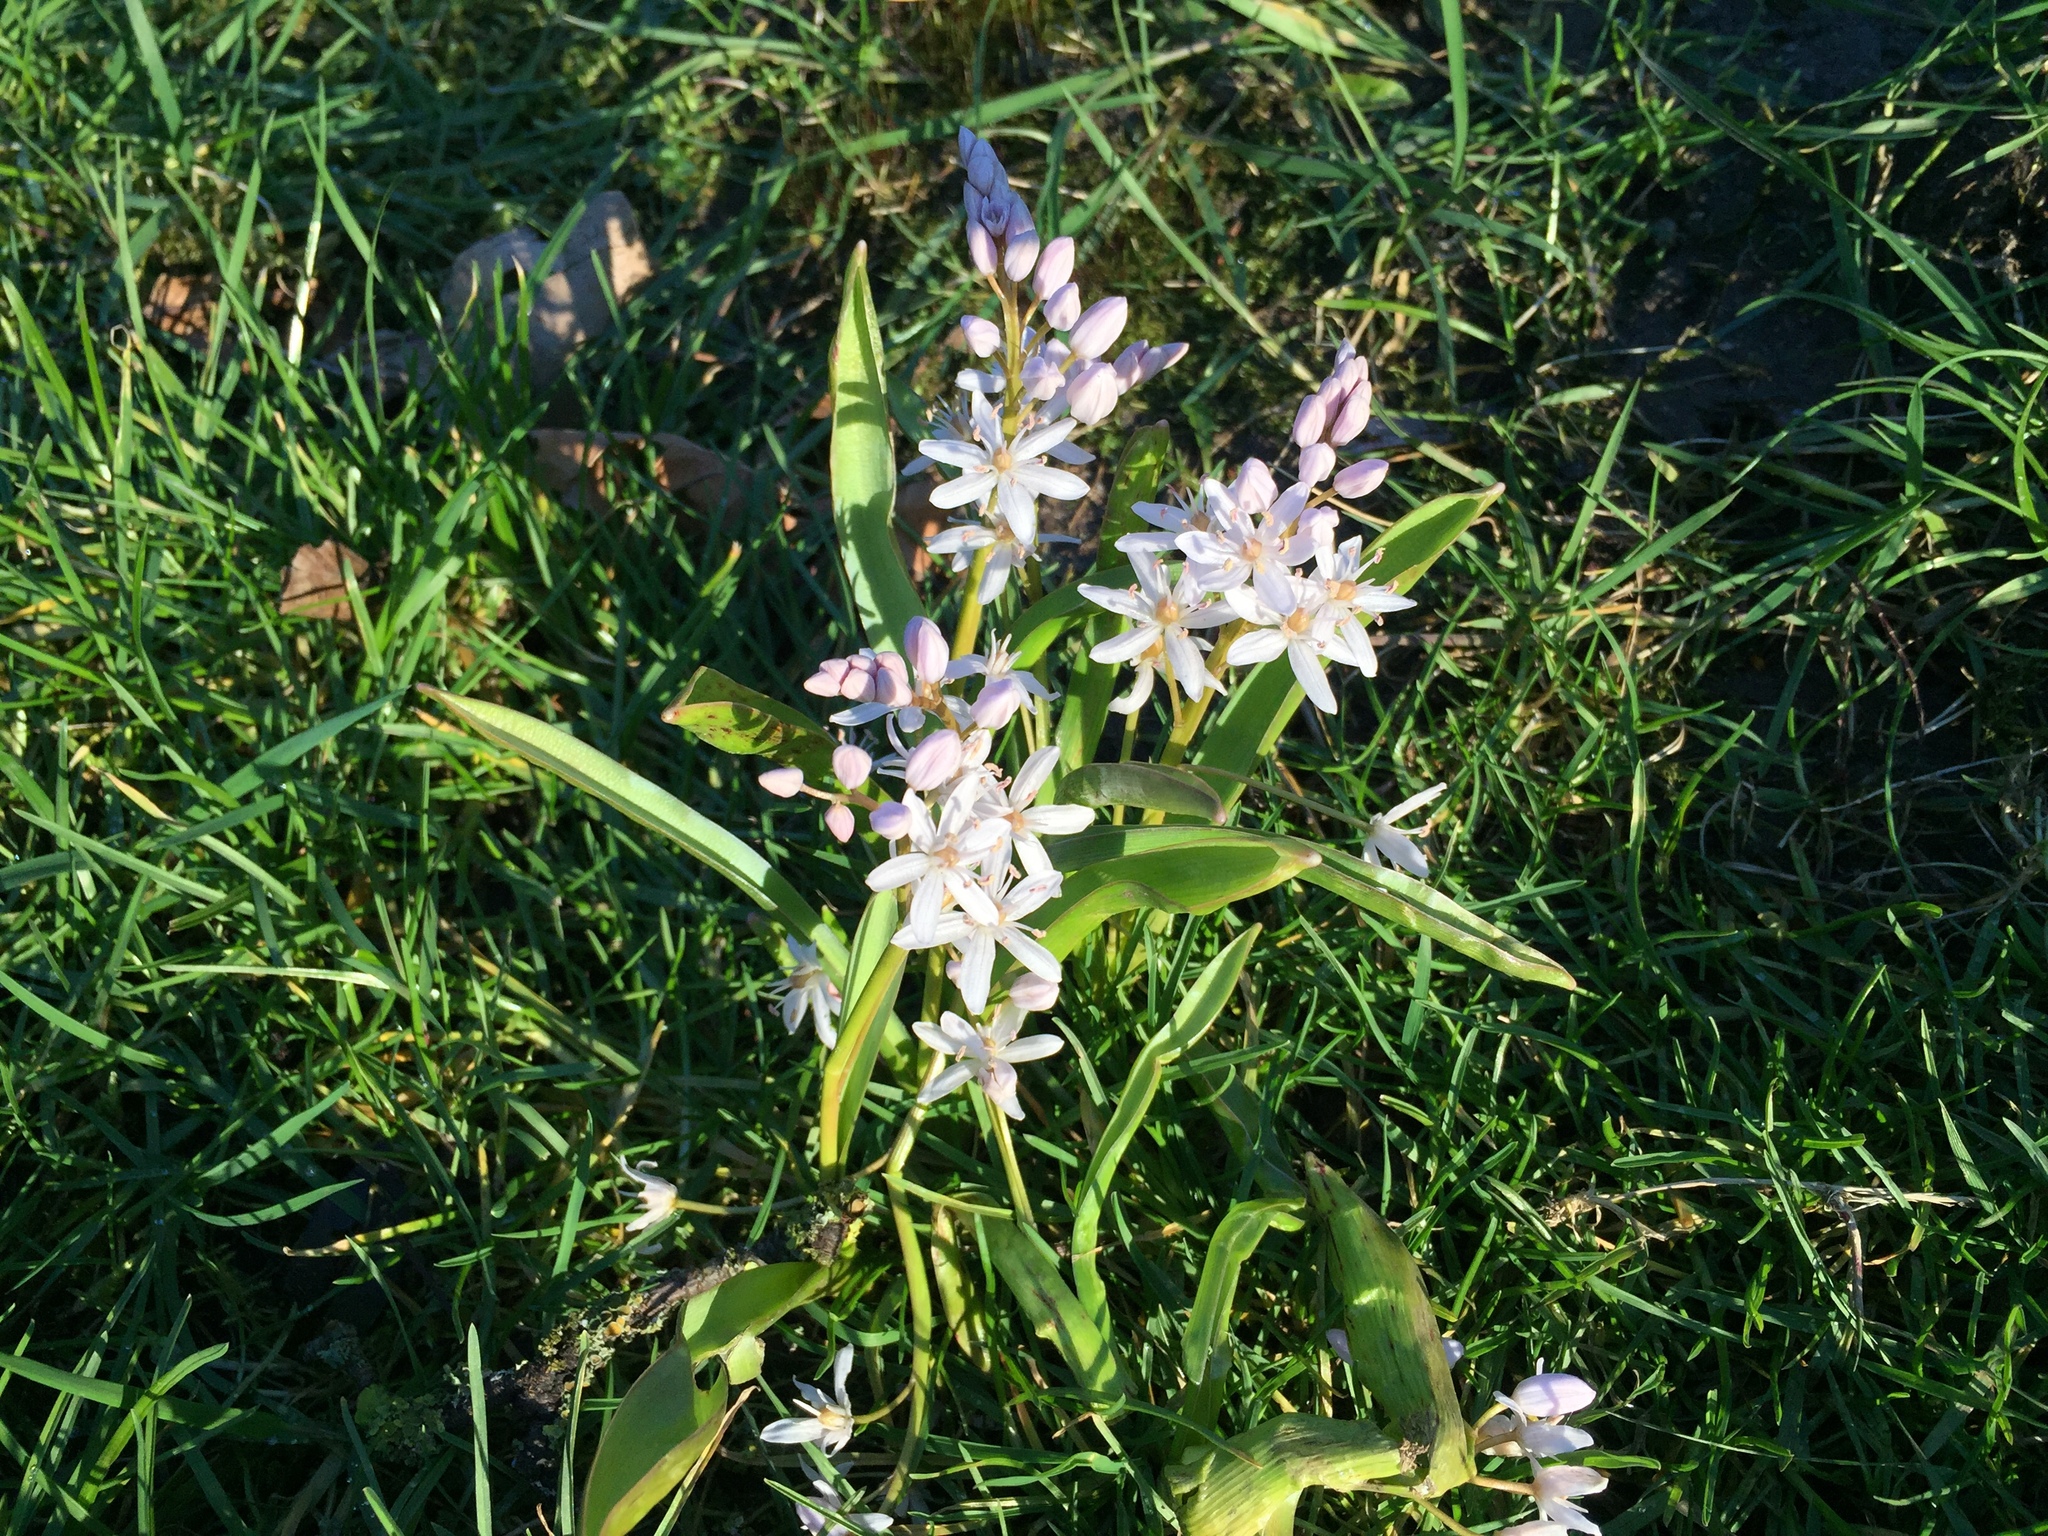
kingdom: Plantae
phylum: Tracheophyta
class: Liliopsida
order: Asparagales
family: Asparagaceae
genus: Scilla
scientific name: Scilla bifolia
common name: Alpine squill
